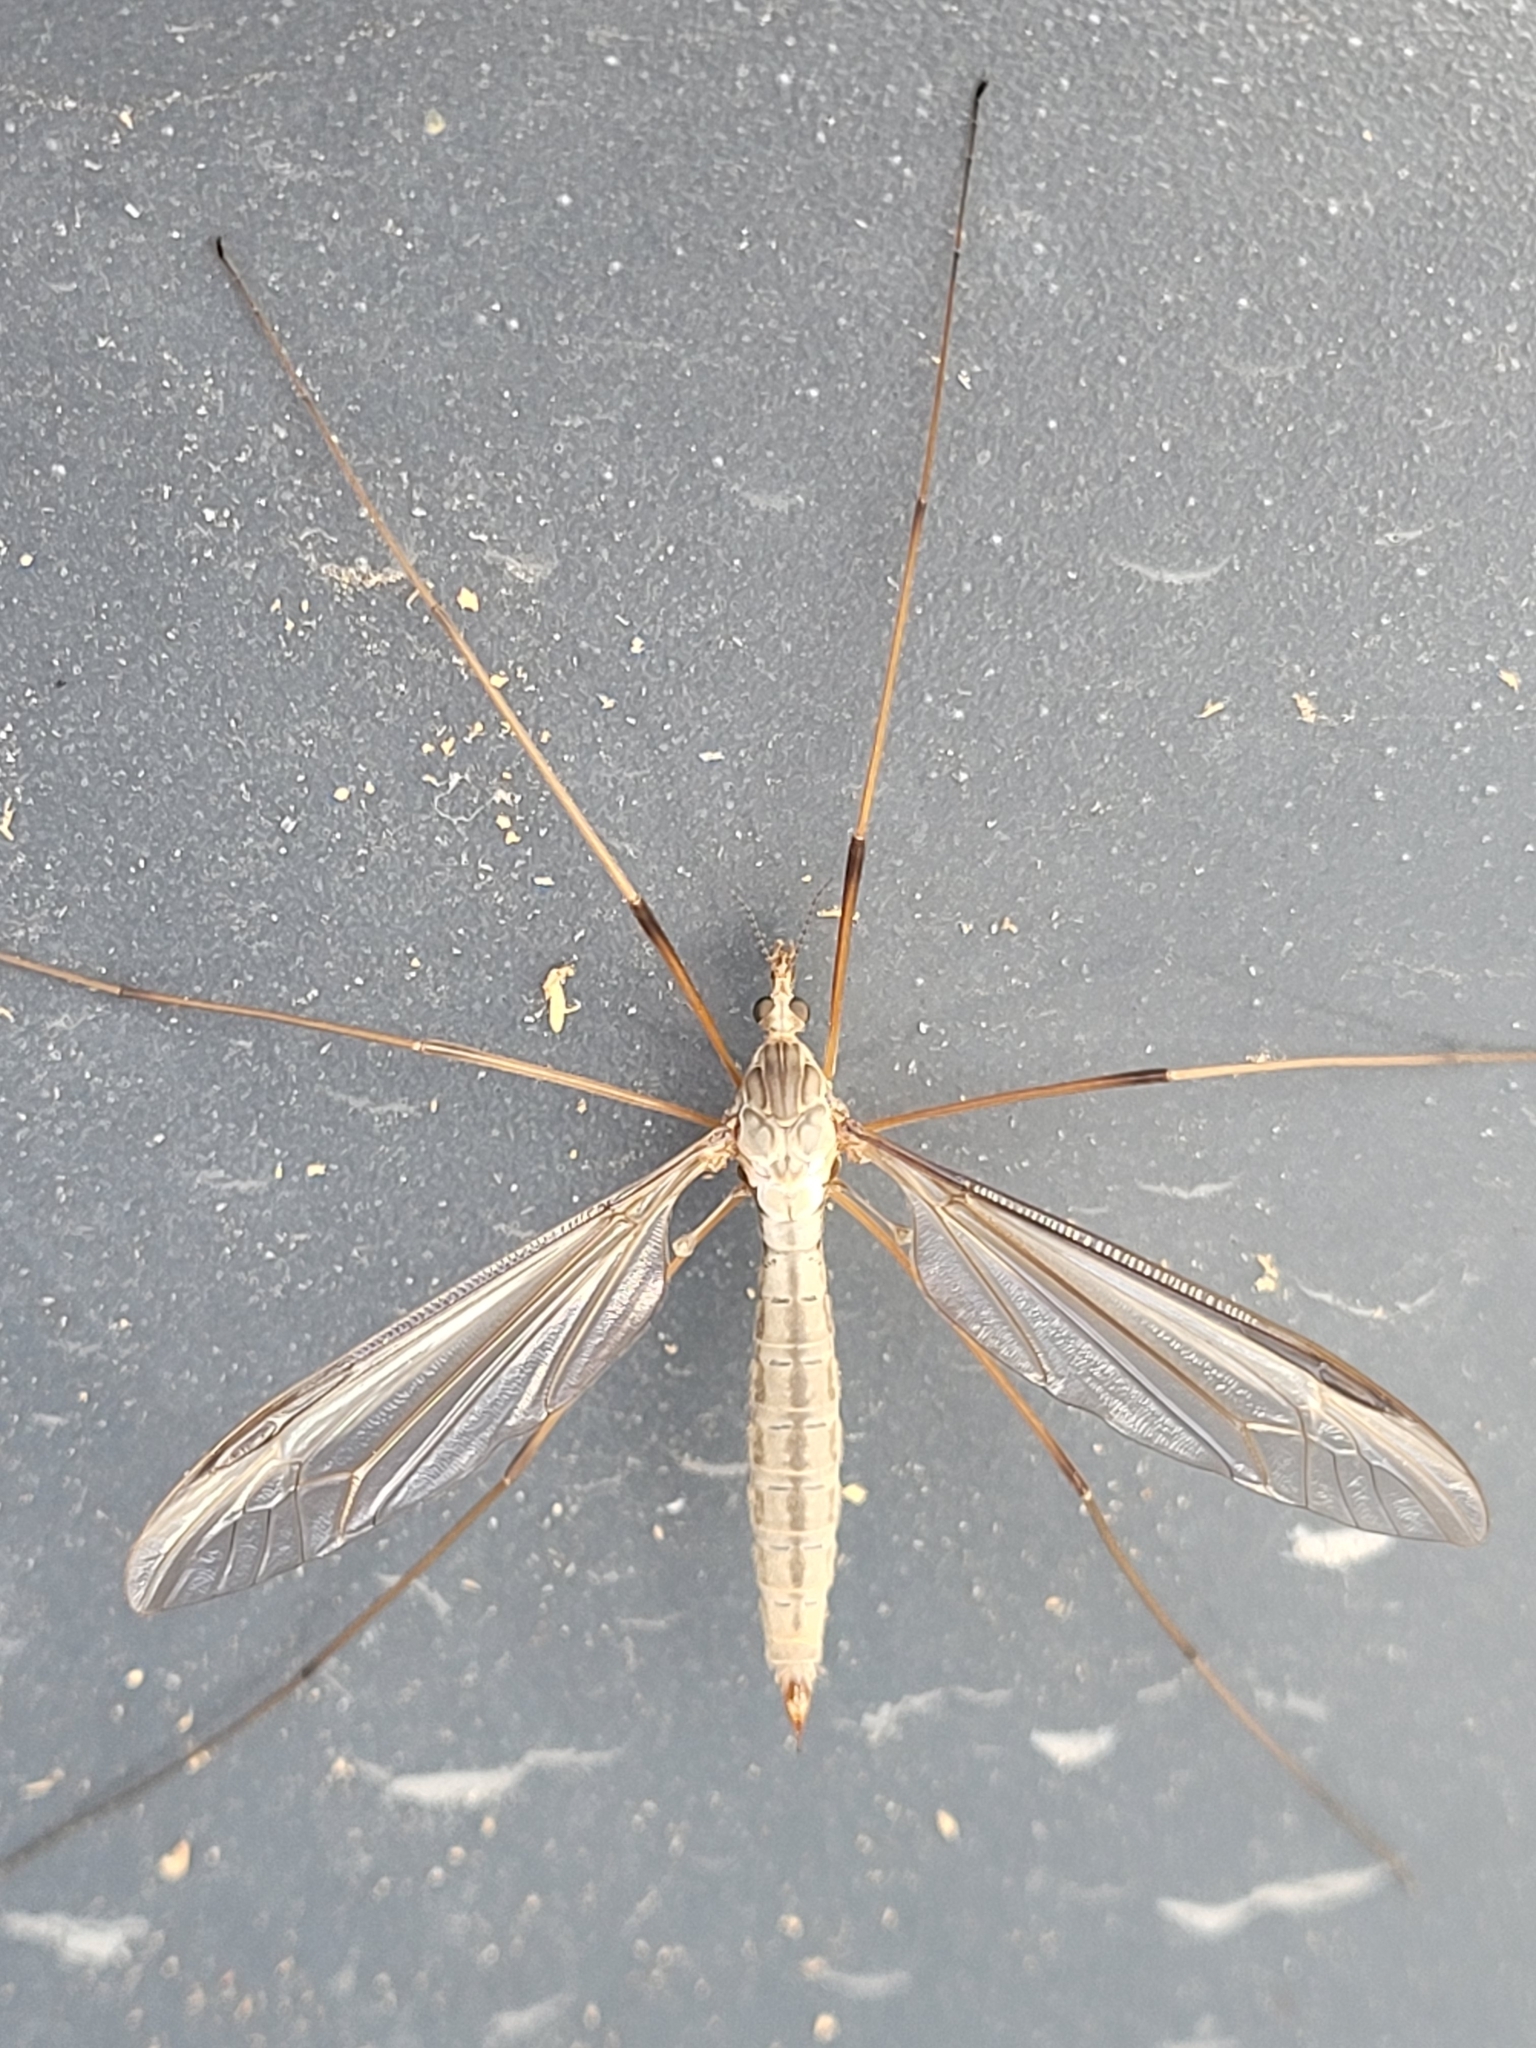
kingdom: Animalia
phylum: Arthropoda
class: Insecta
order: Diptera
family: Tipulidae
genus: Tipula
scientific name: Tipula oleracea
